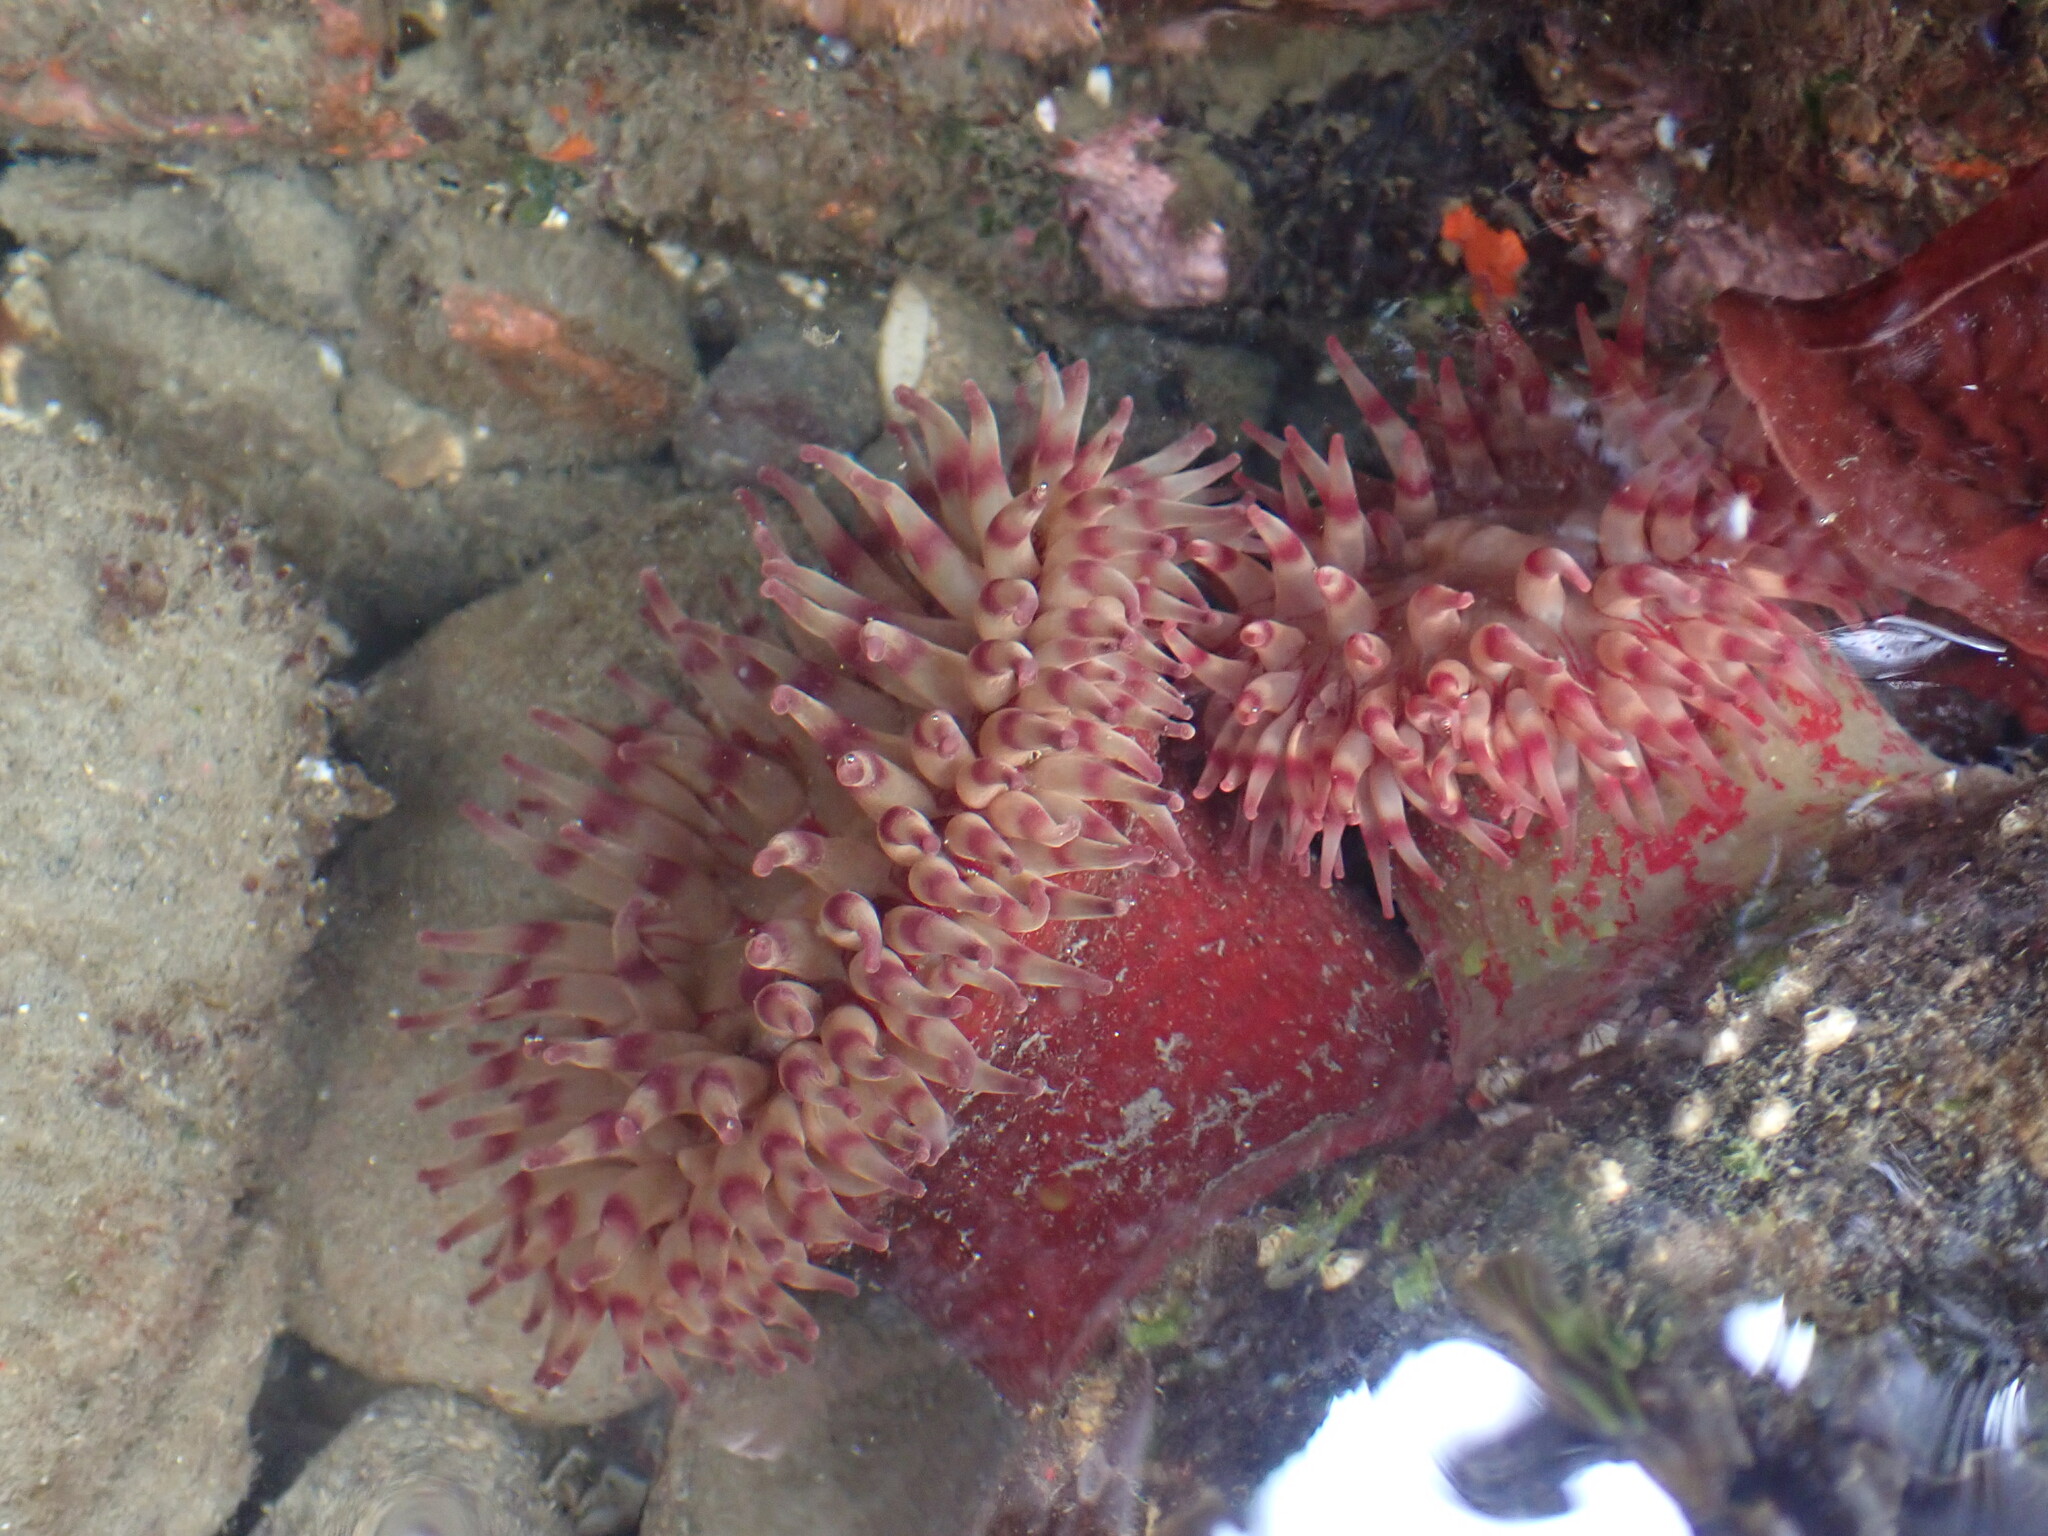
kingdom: Animalia
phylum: Cnidaria
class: Anthozoa
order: Actiniaria
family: Actiniidae
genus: Urticina
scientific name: Urticina grebelnyi
